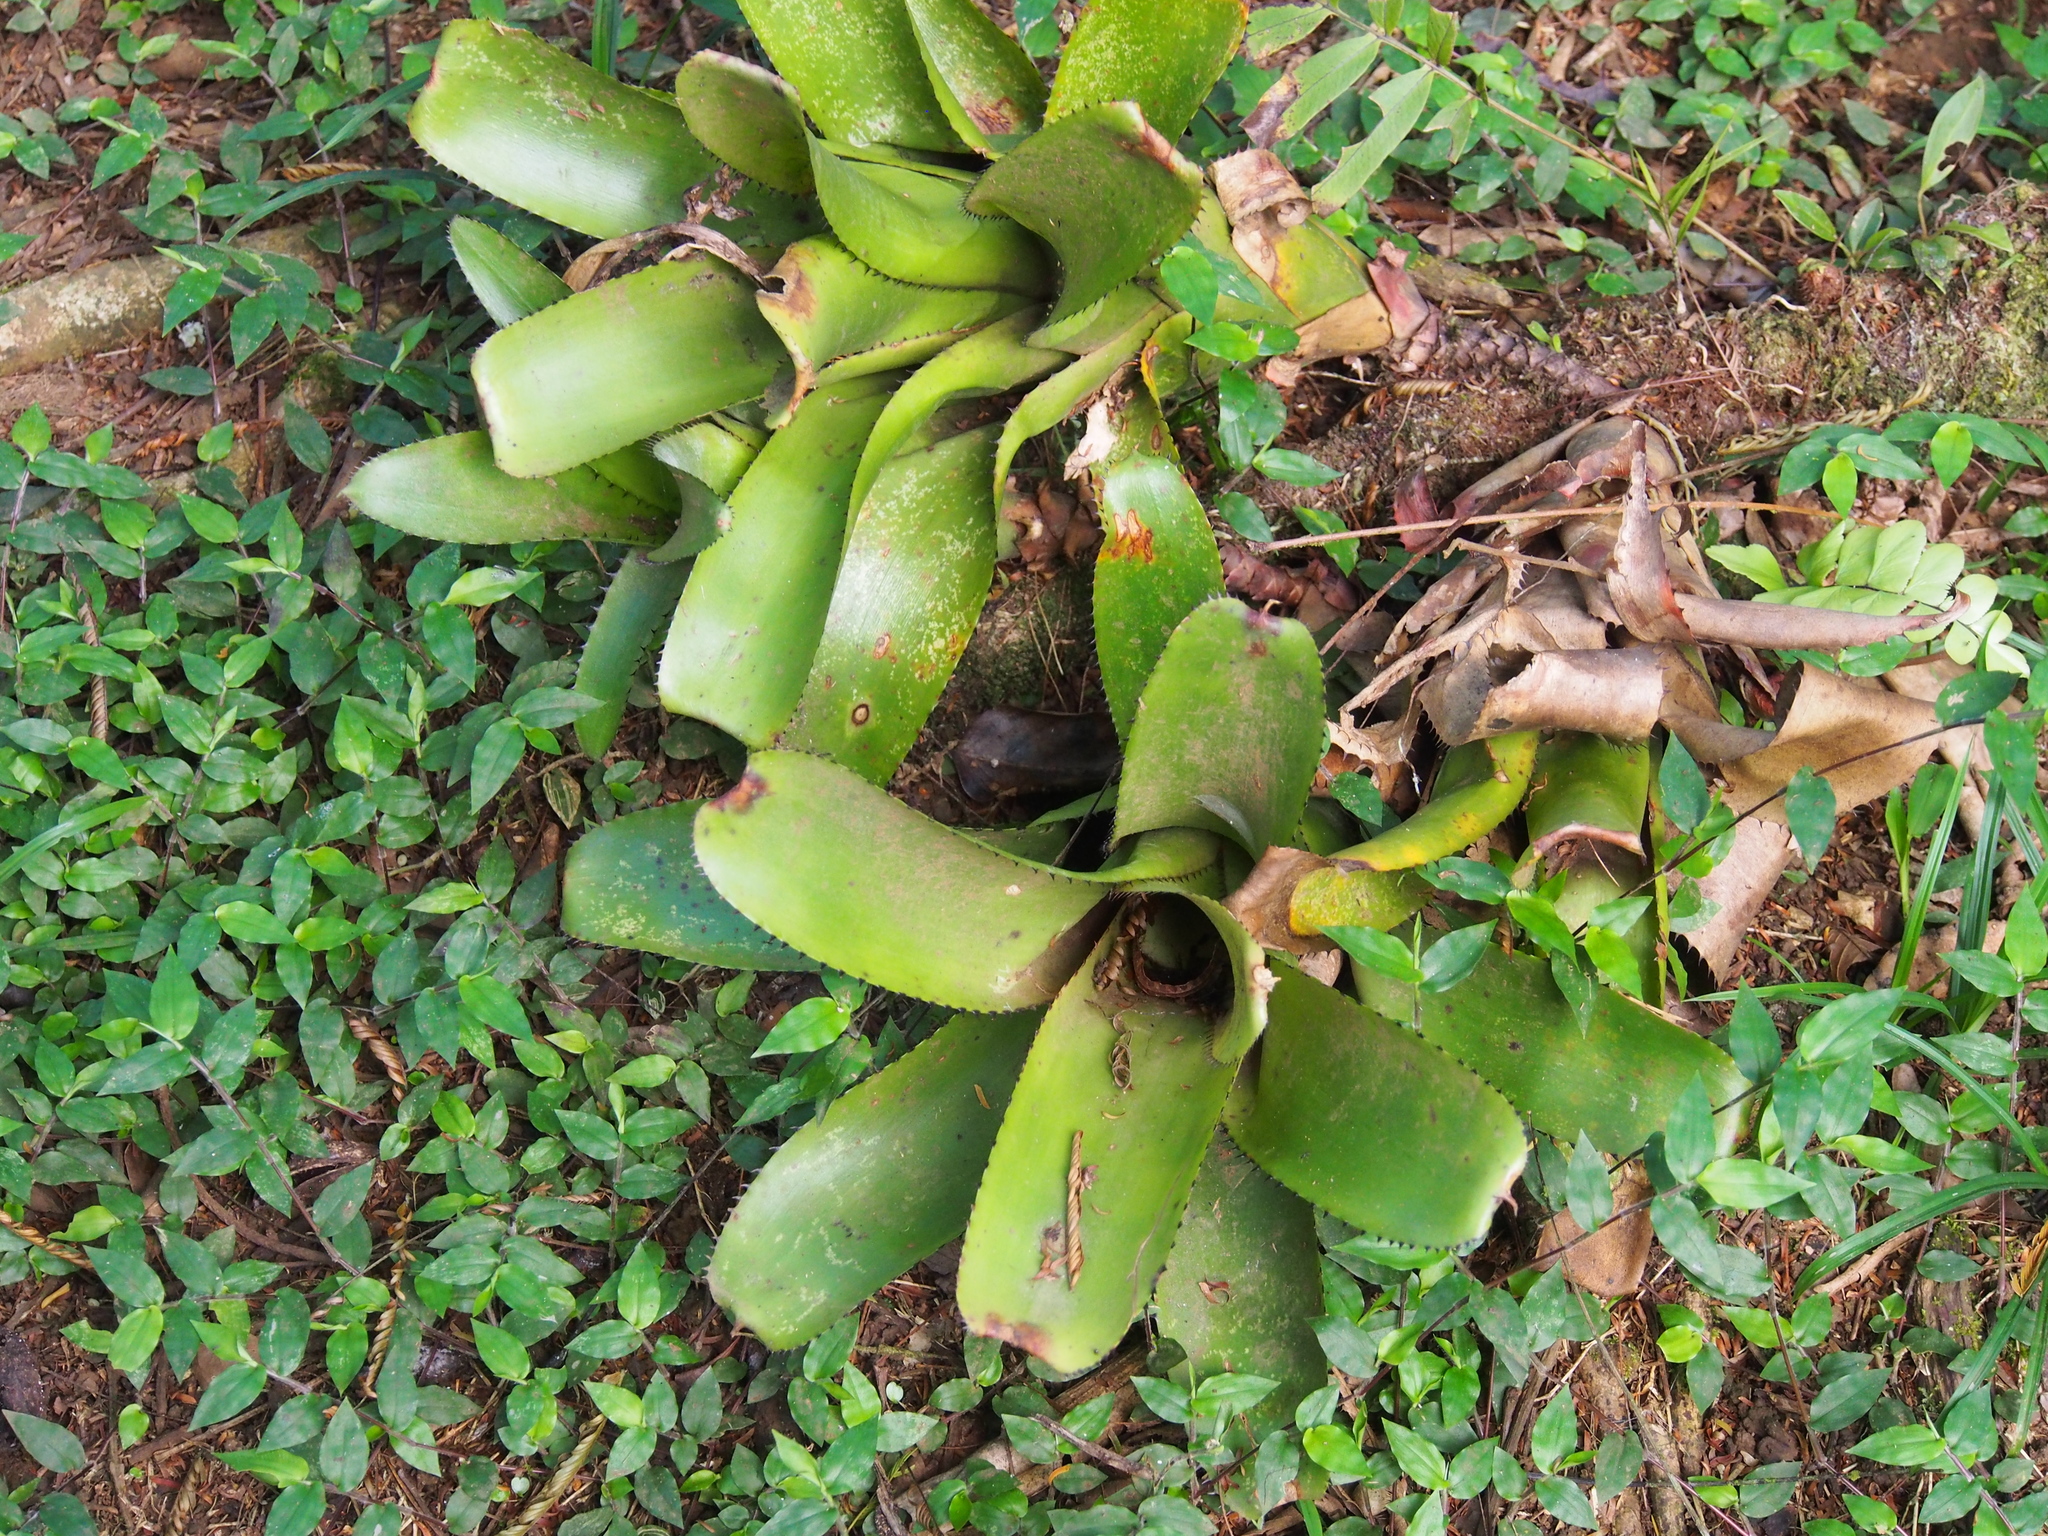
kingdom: Plantae
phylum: Tracheophyta
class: Liliopsida
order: Poales
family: Bromeliaceae
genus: Aechmea
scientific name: Aechmea nudicaulis
